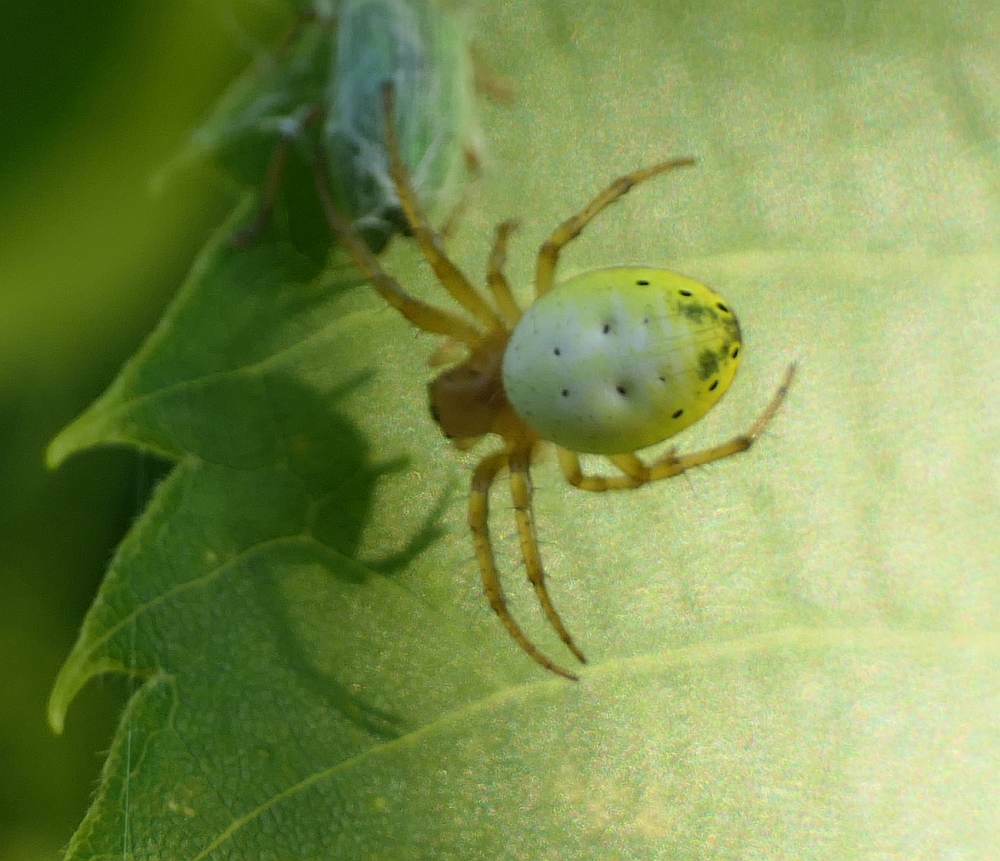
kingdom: Animalia
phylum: Arthropoda
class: Arachnida
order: Araneae
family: Araneidae
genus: Araniella
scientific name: Araniella displicata
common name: Sixspotted orb weaver
